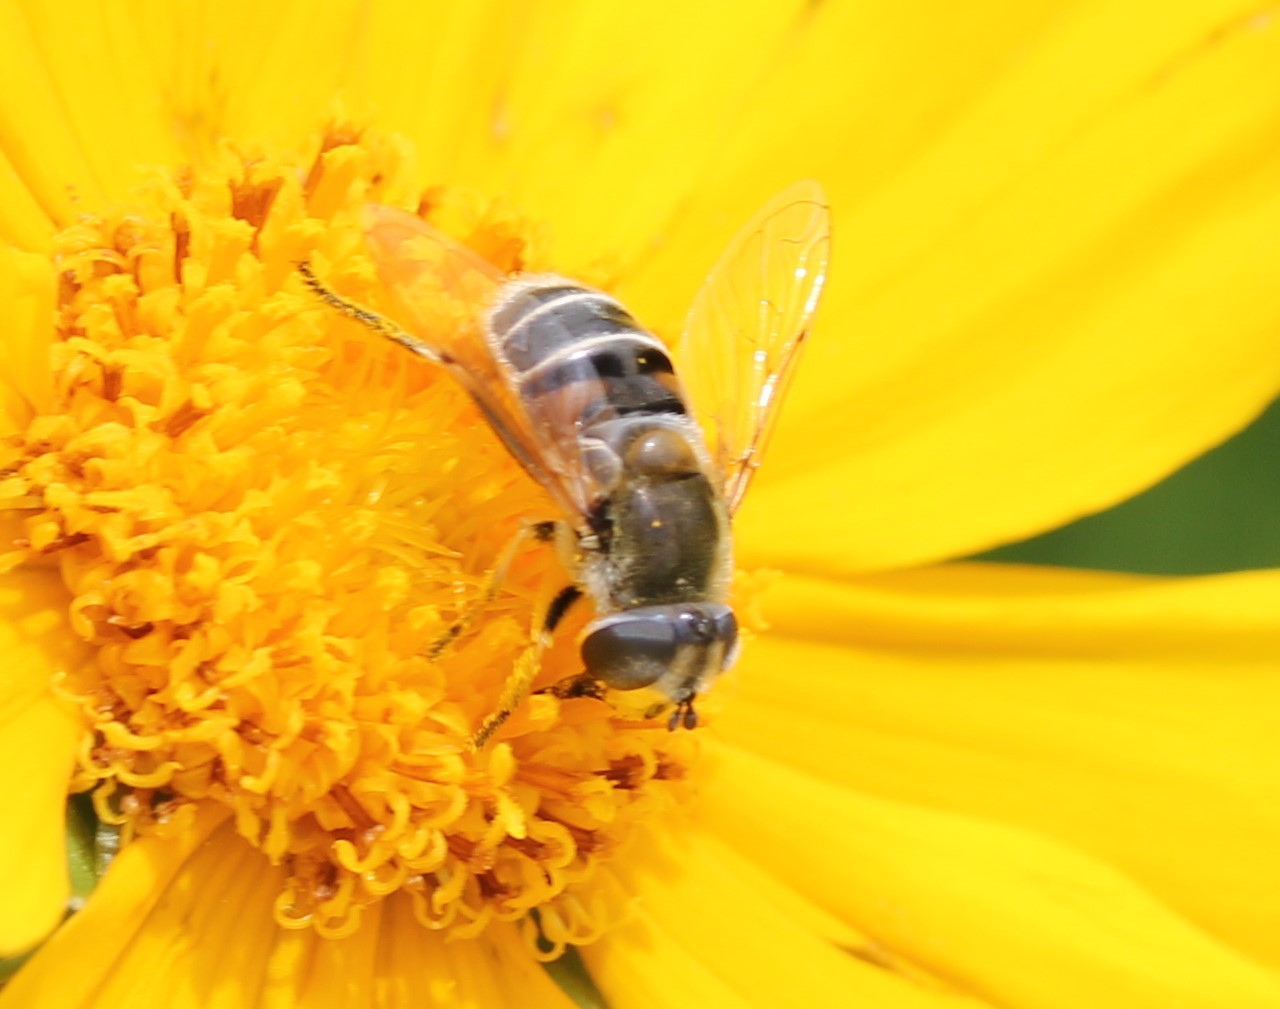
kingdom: Animalia
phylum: Arthropoda
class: Insecta
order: Diptera
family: Syrphidae
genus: Eristalis
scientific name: Eristalis stipator
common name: Yellow-shouldered drone fly
